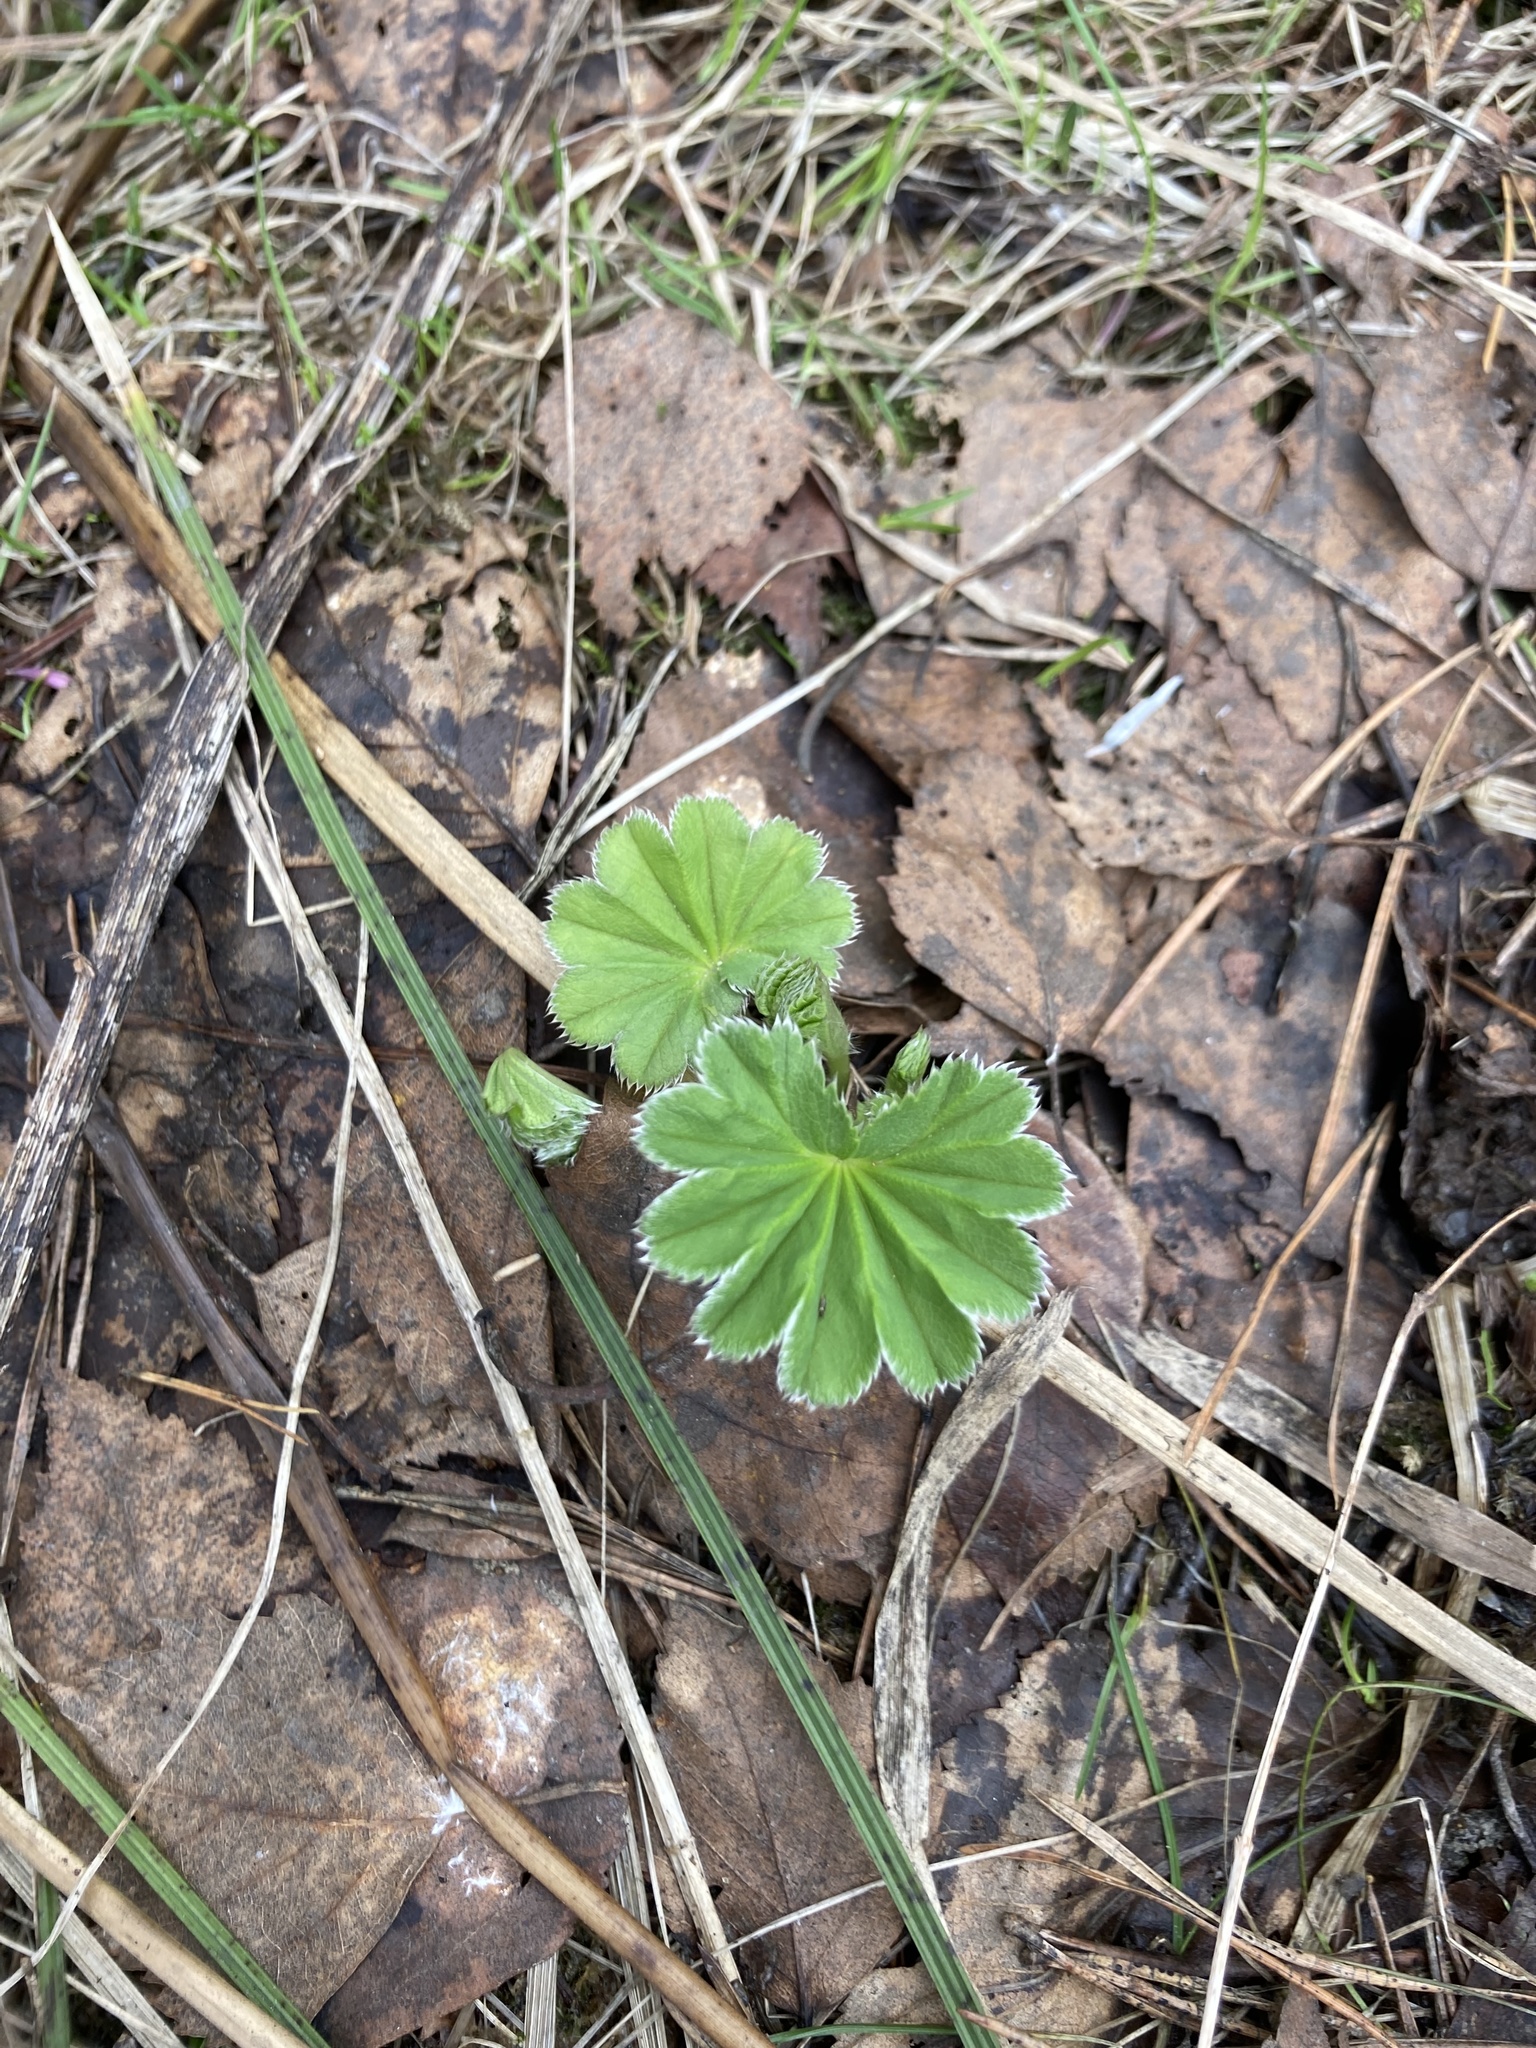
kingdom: Plantae
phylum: Tracheophyta
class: Magnoliopsida
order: Rosales
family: Rosaceae
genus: Alchemilla
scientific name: Alchemilla
